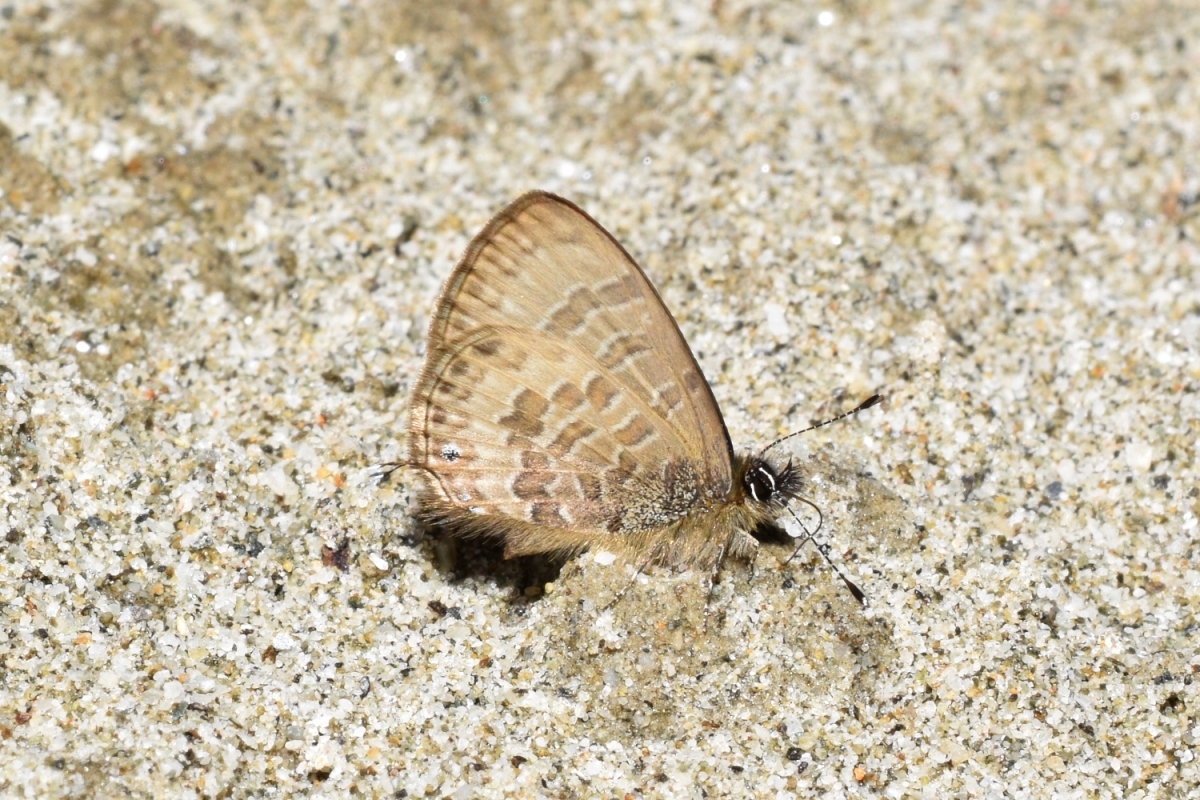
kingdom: Animalia
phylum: Arthropoda
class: Insecta
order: Lepidoptera
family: Lycaenidae
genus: Prosotas
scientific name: Prosotas nora
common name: Common line blue
